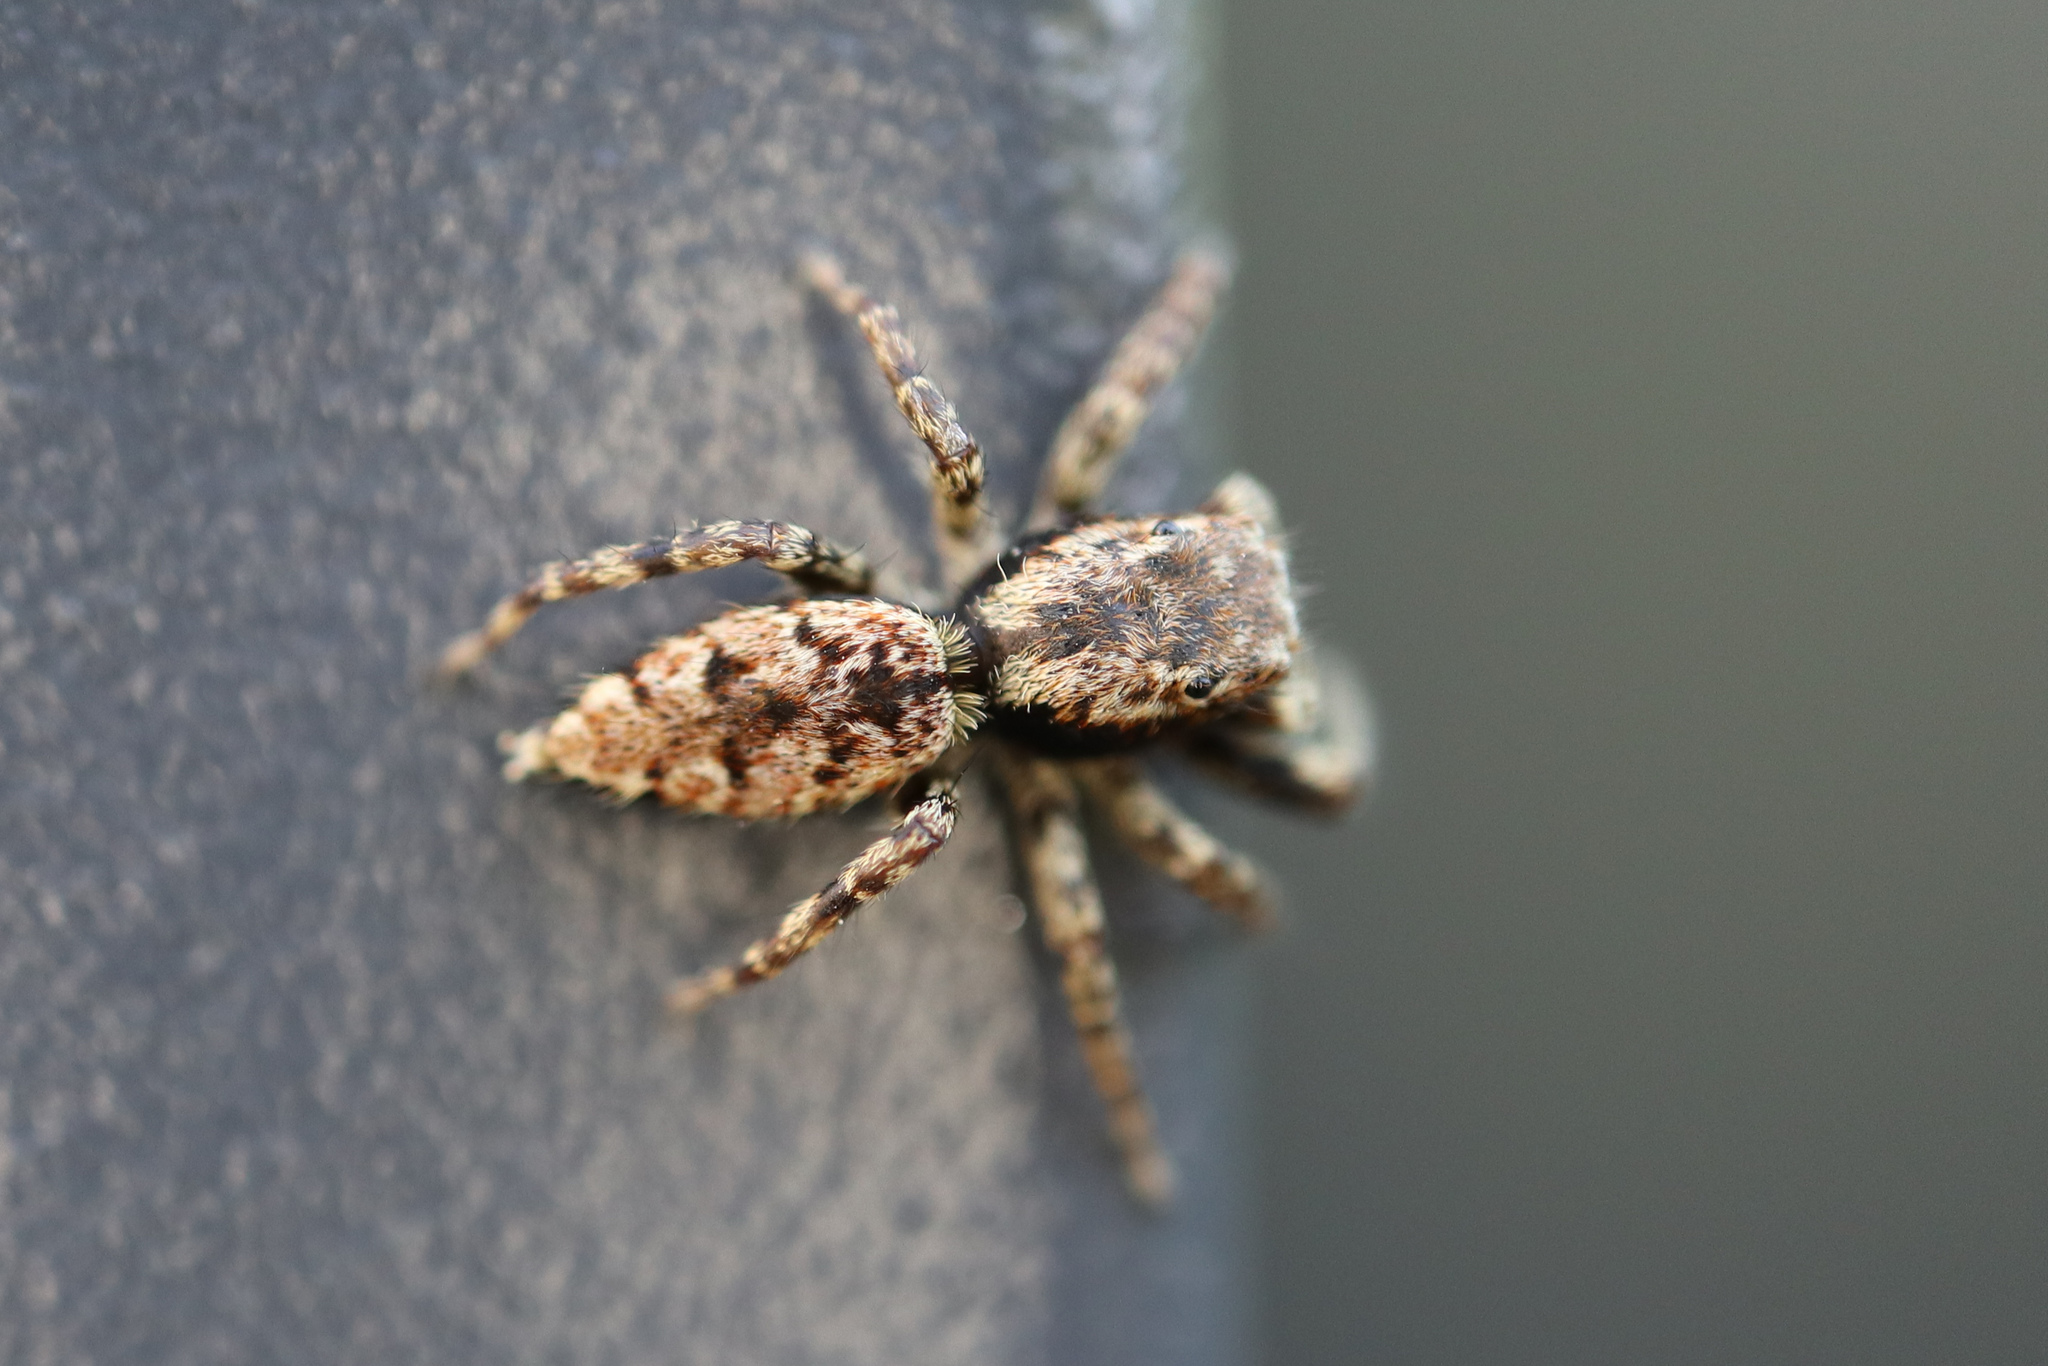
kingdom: Animalia
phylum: Arthropoda
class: Arachnida
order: Araneae
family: Salticidae
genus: Marpissa
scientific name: Marpissa muscosa
